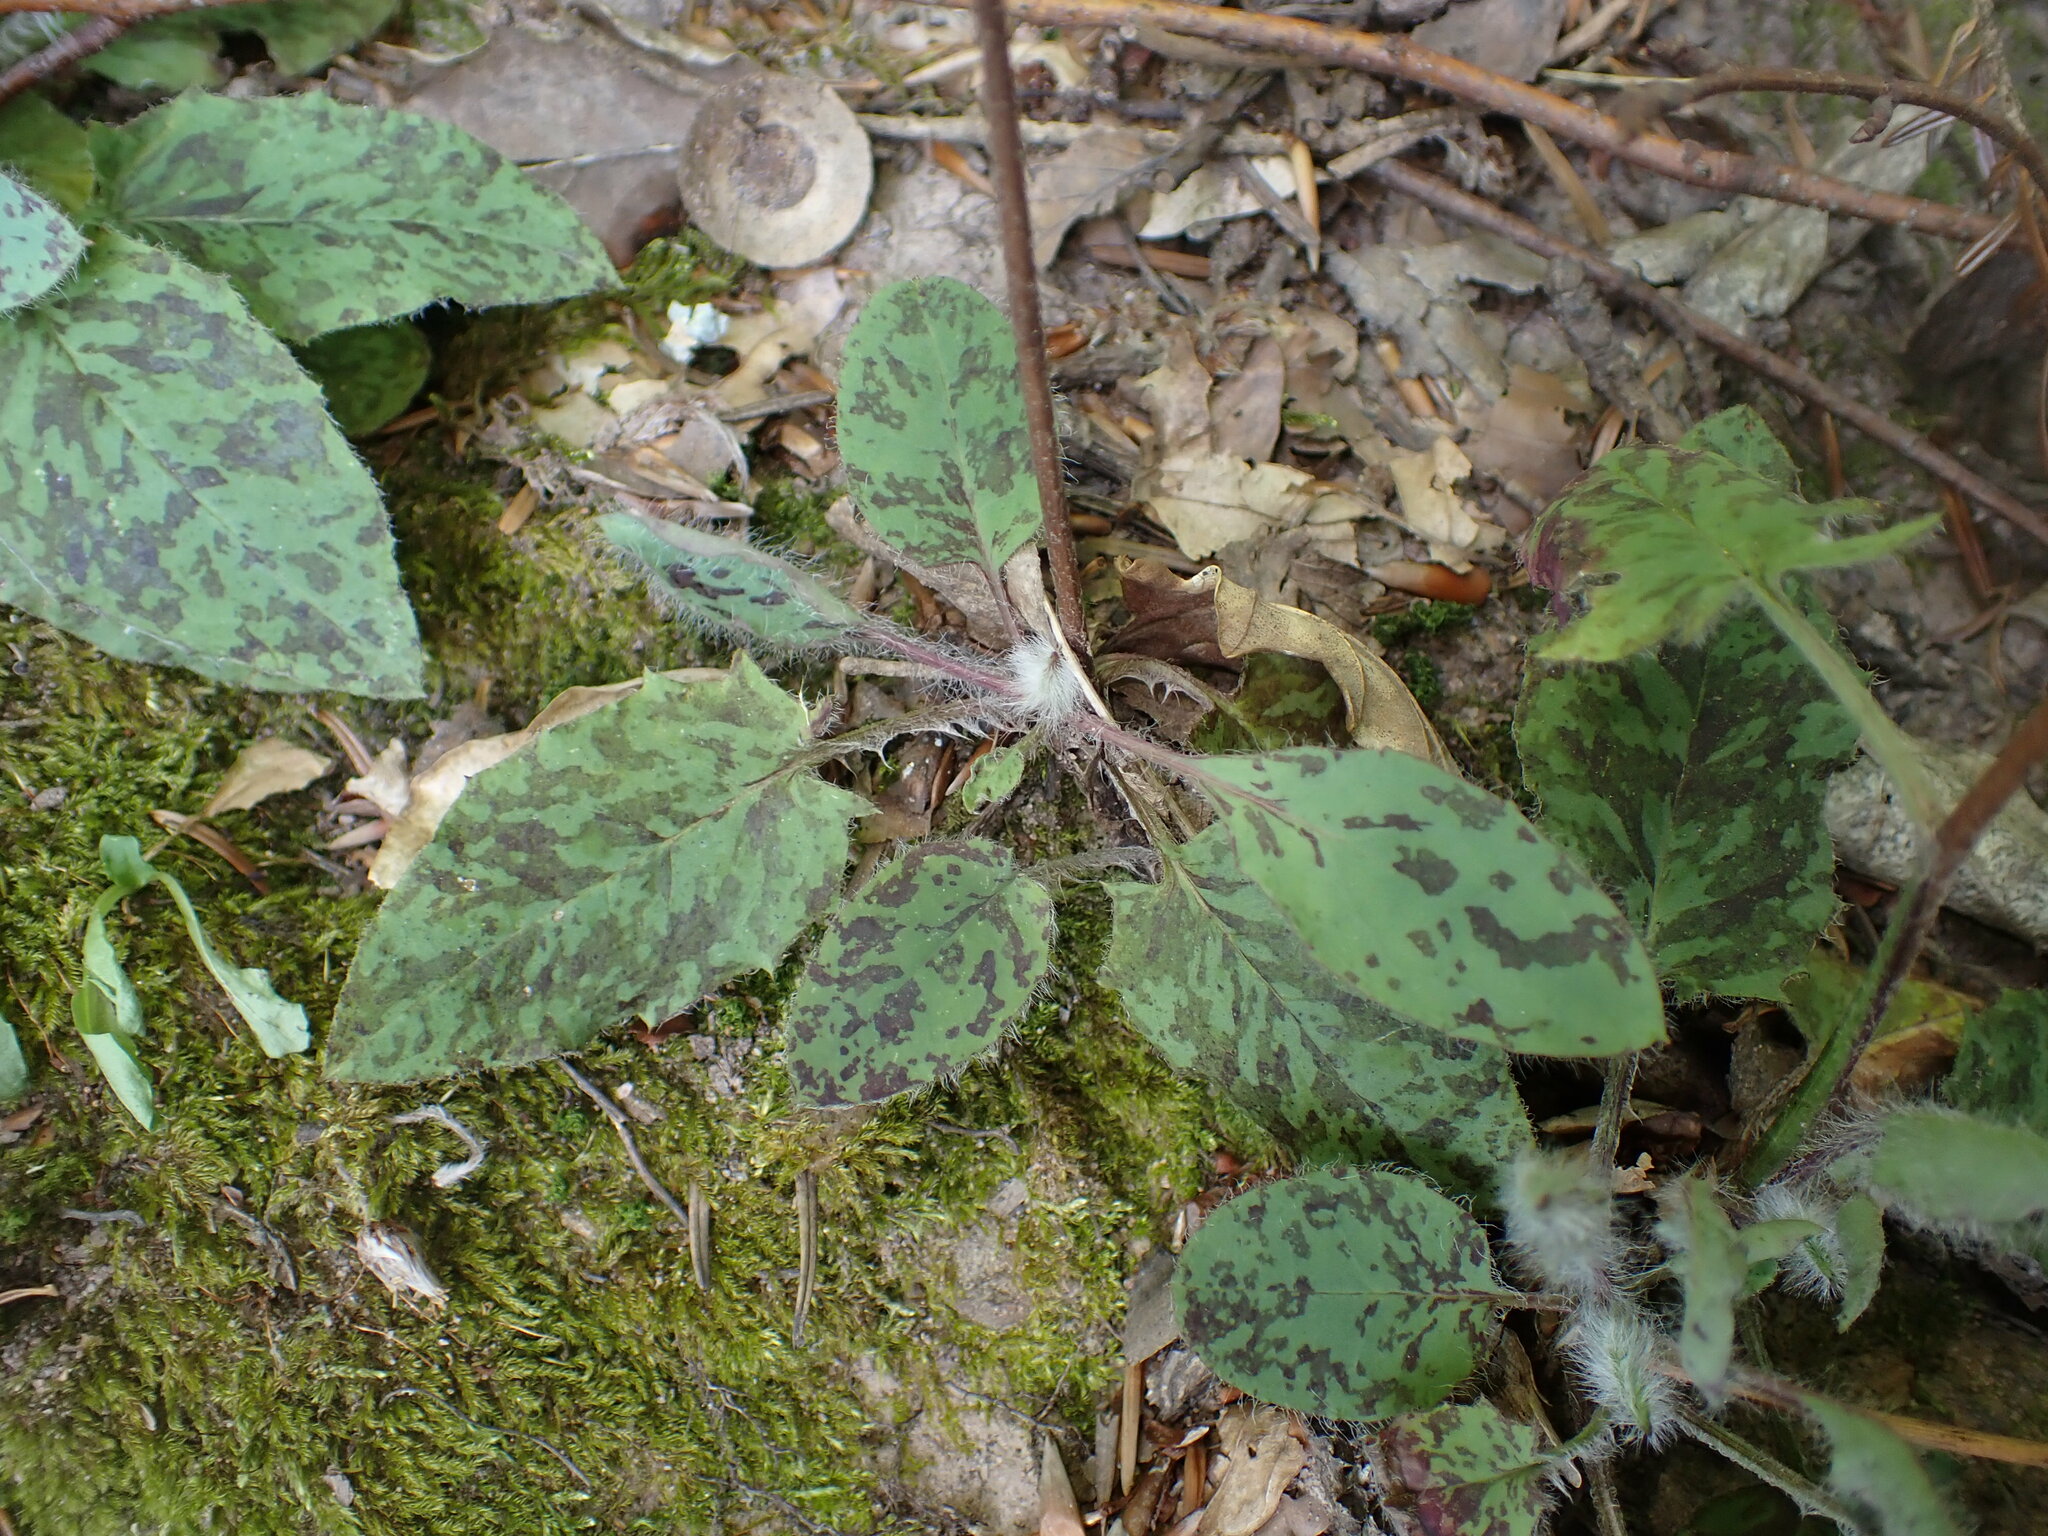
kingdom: Plantae
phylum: Tracheophyta
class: Magnoliopsida
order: Asterales
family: Asteraceae
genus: Hieracium
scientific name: Hieracium maculatum
